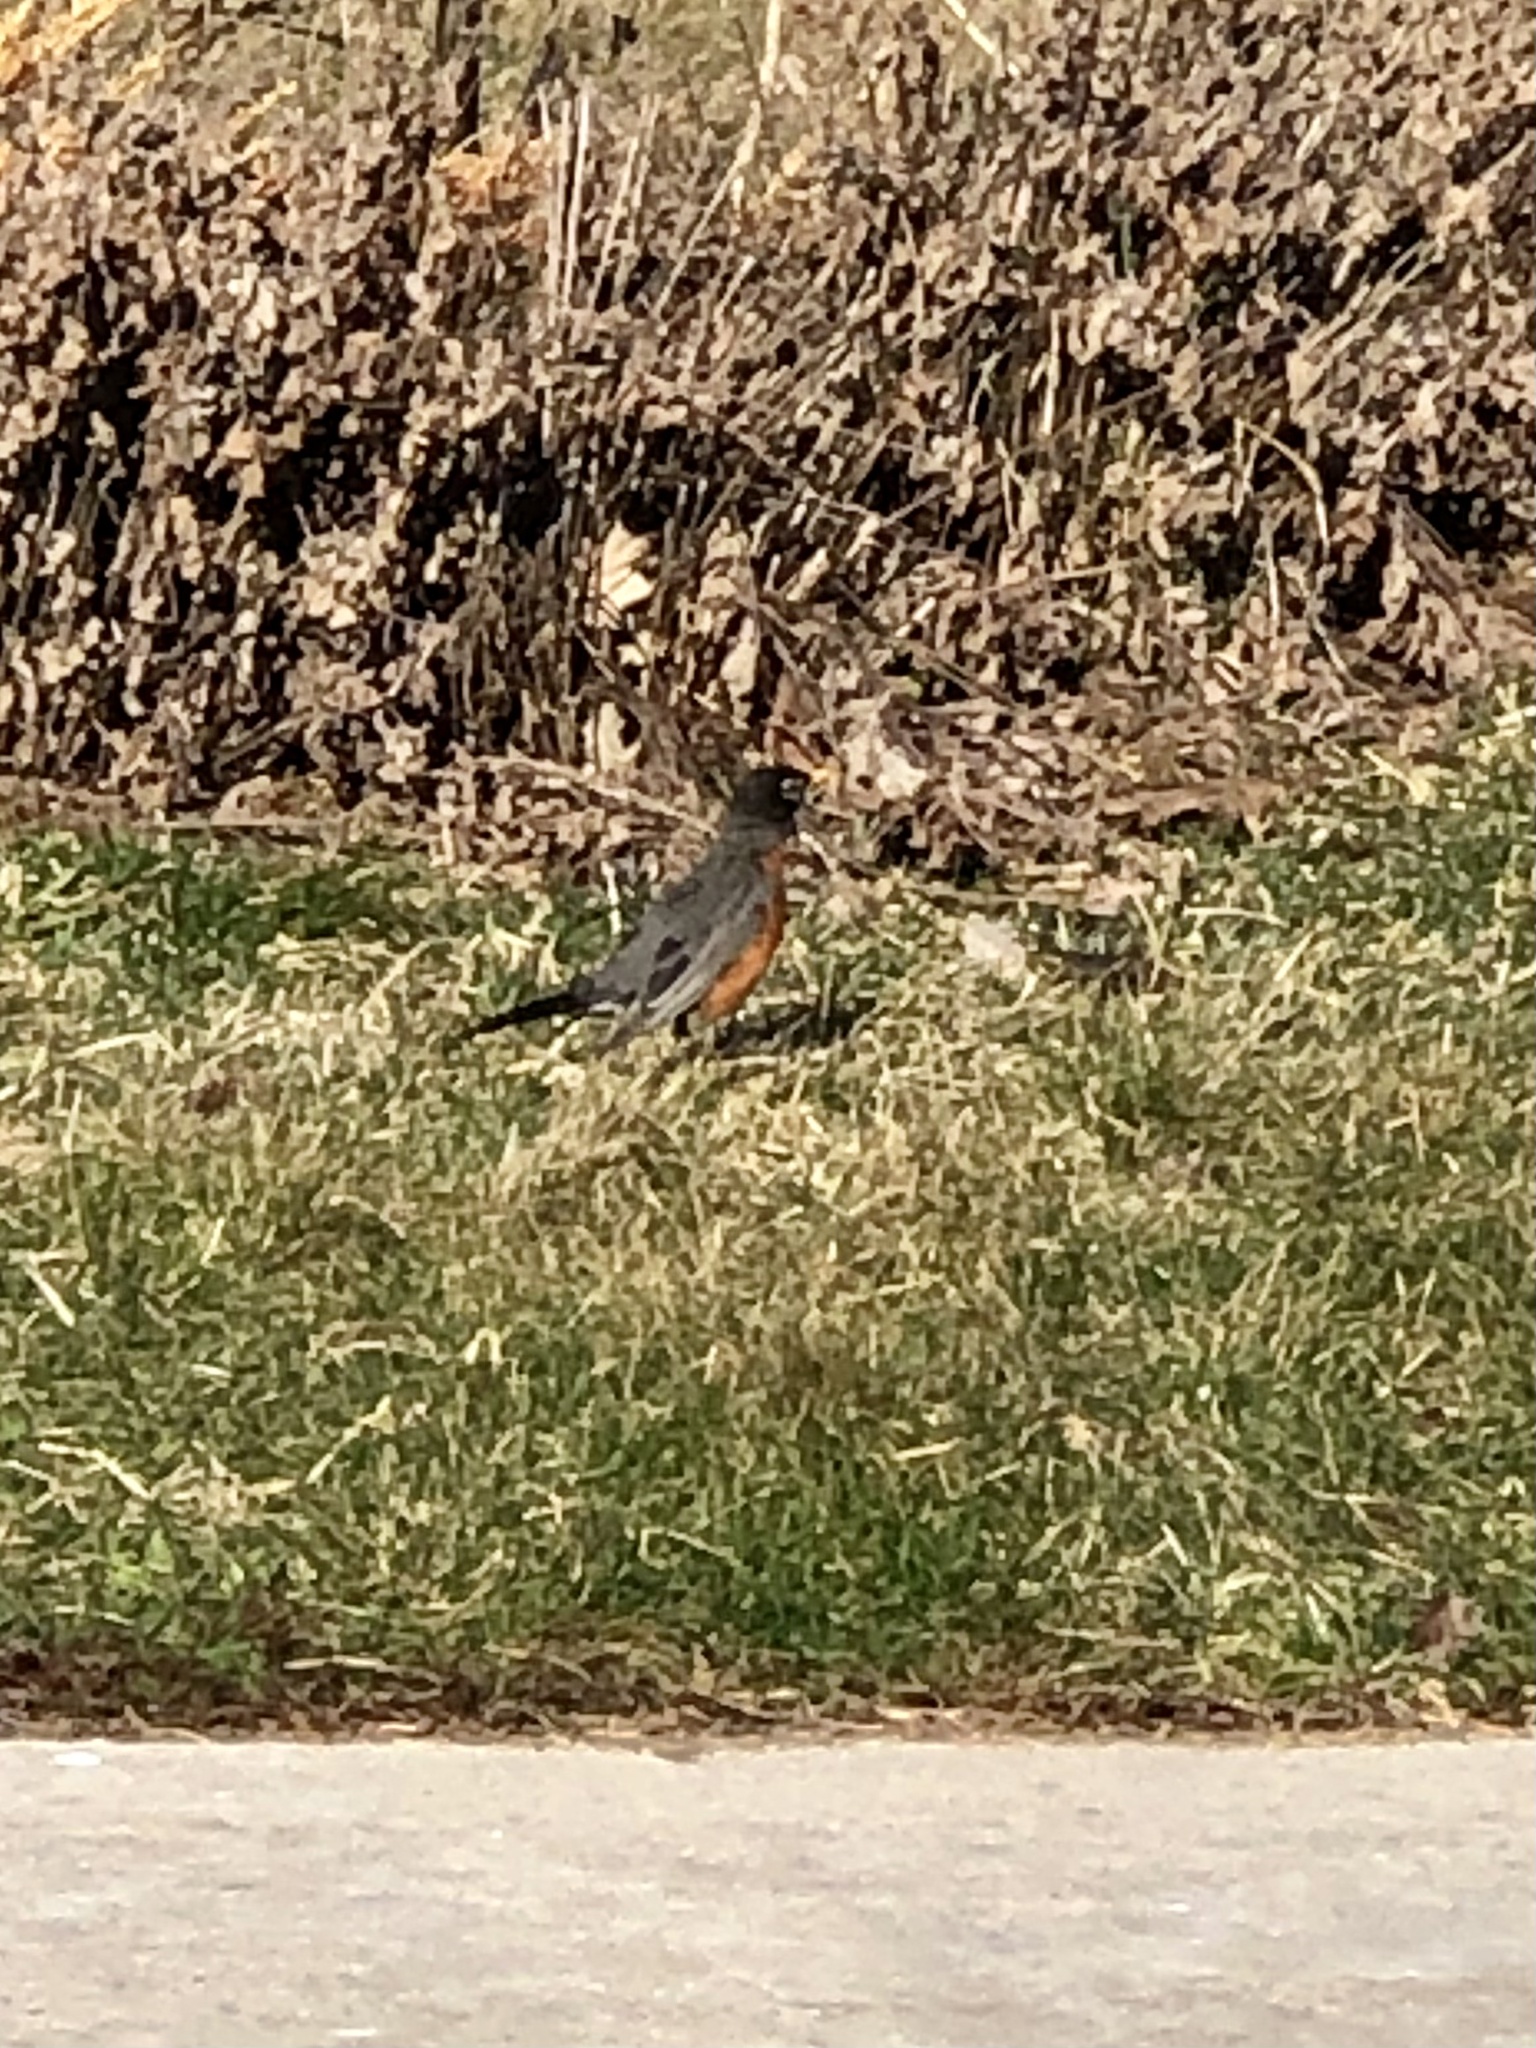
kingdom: Animalia
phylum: Chordata
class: Aves
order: Passeriformes
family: Turdidae
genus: Turdus
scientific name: Turdus migratorius
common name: American robin
